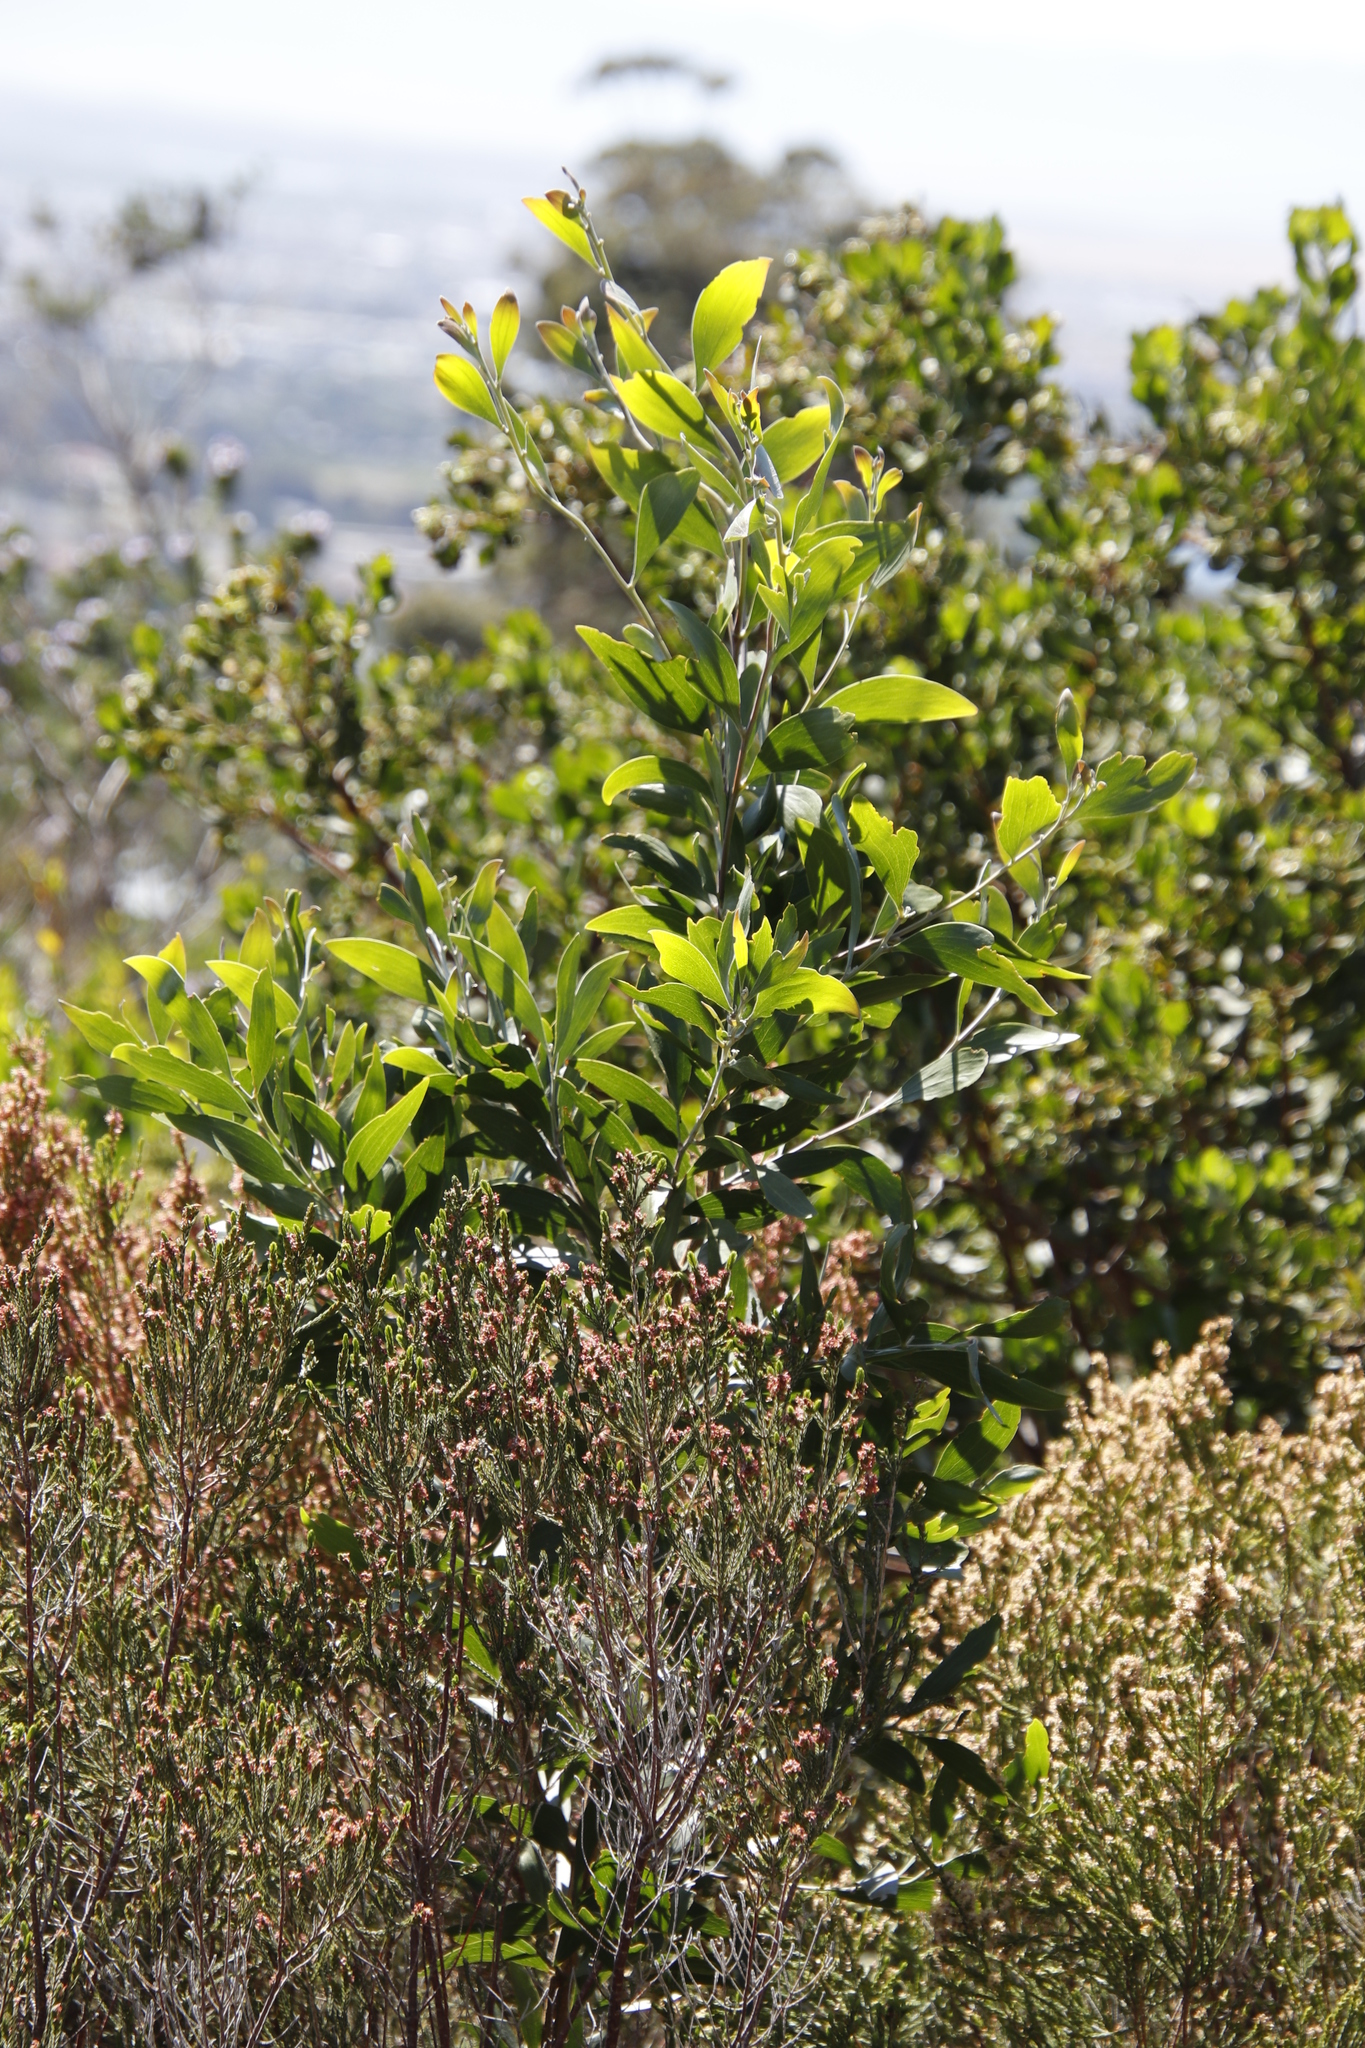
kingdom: Plantae
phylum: Tracheophyta
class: Magnoliopsida
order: Fabales
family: Fabaceae
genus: Acacia
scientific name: Acacia melanoxylon
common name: Blackwood
